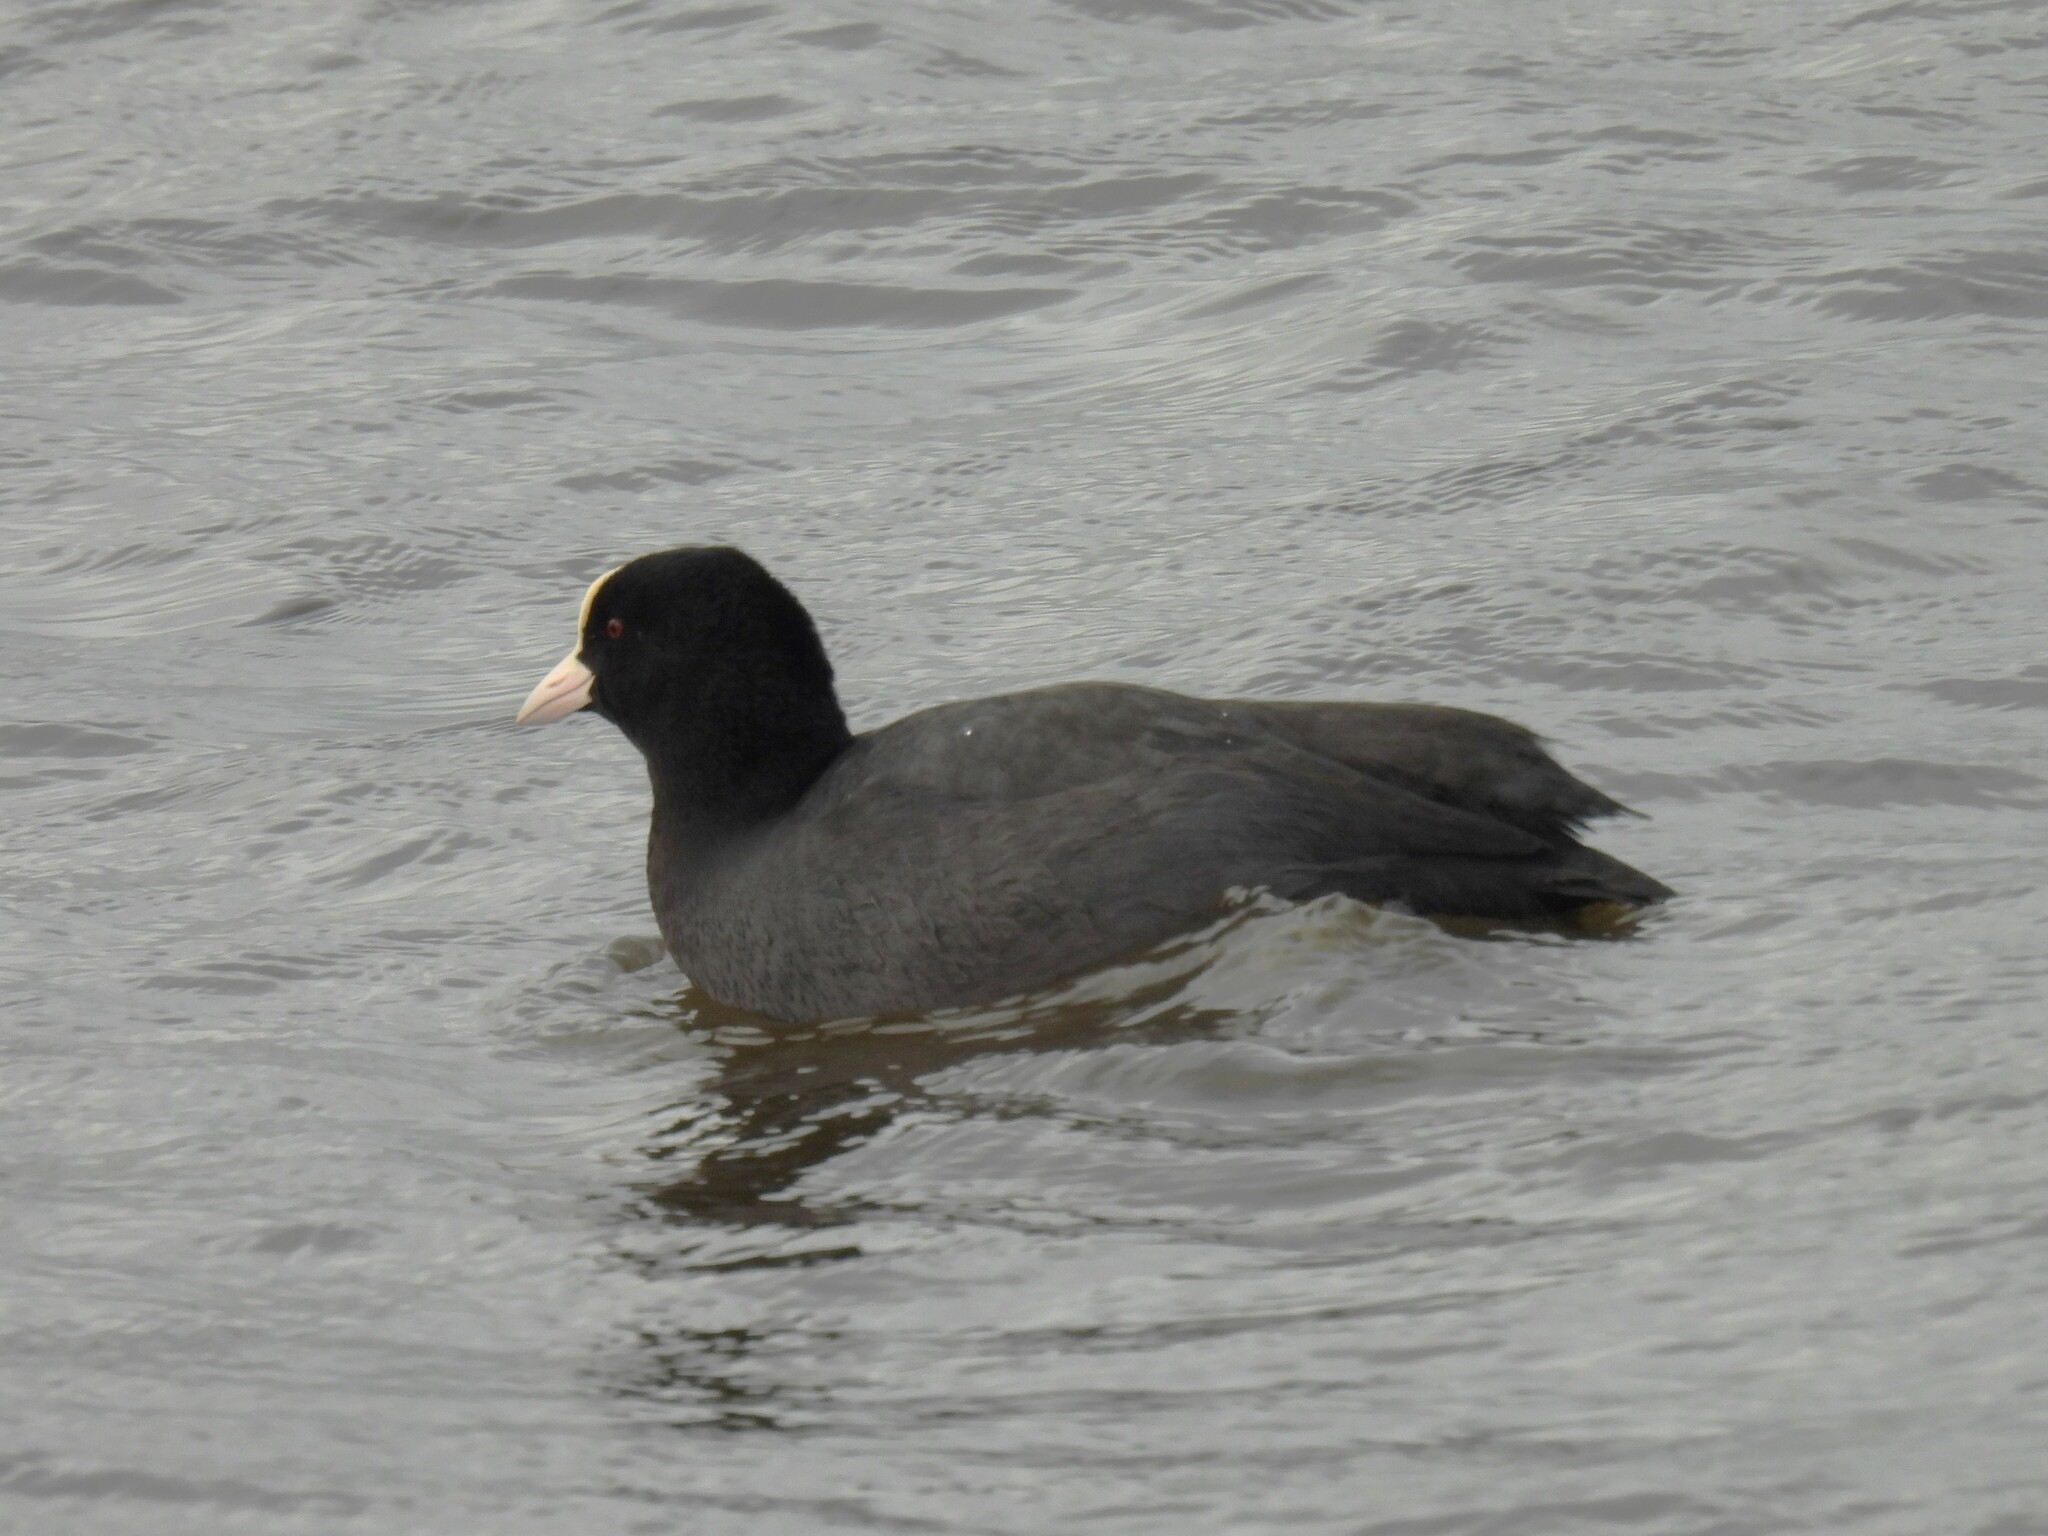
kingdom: Animalia
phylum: Chordata
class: Aves
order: Gruiformes
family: Rallidae
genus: Fulica
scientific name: Fulica atra
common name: Eurasian coot
